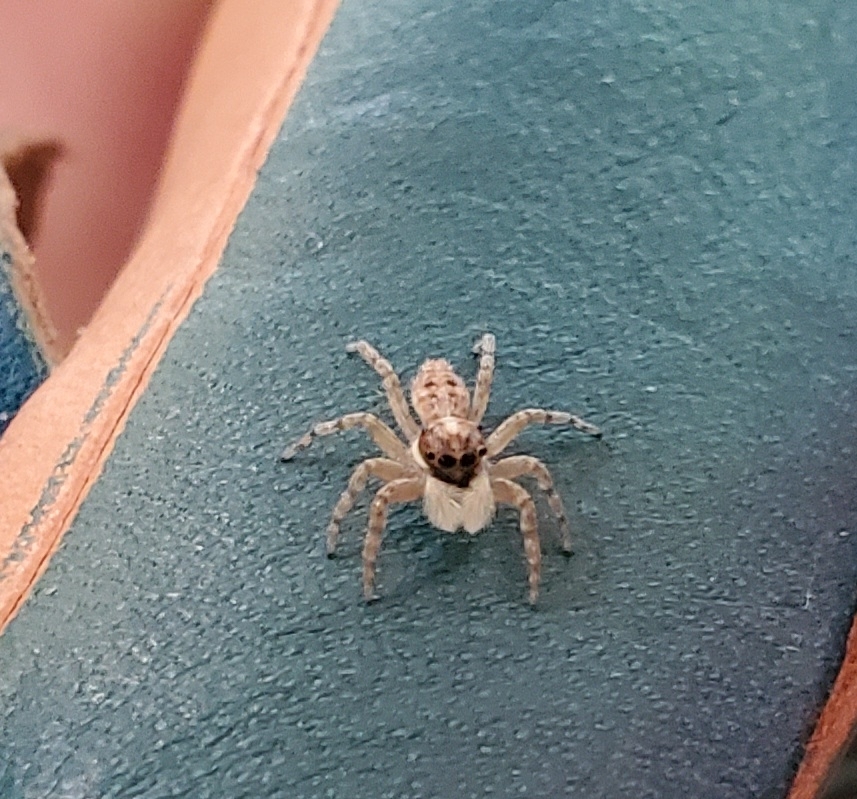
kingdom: Animalia
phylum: Arthropoda
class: Arachnida
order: Araneae
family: Salticidae
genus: Menemerus
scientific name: Menemerus semilimbatus
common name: Jumping spider
